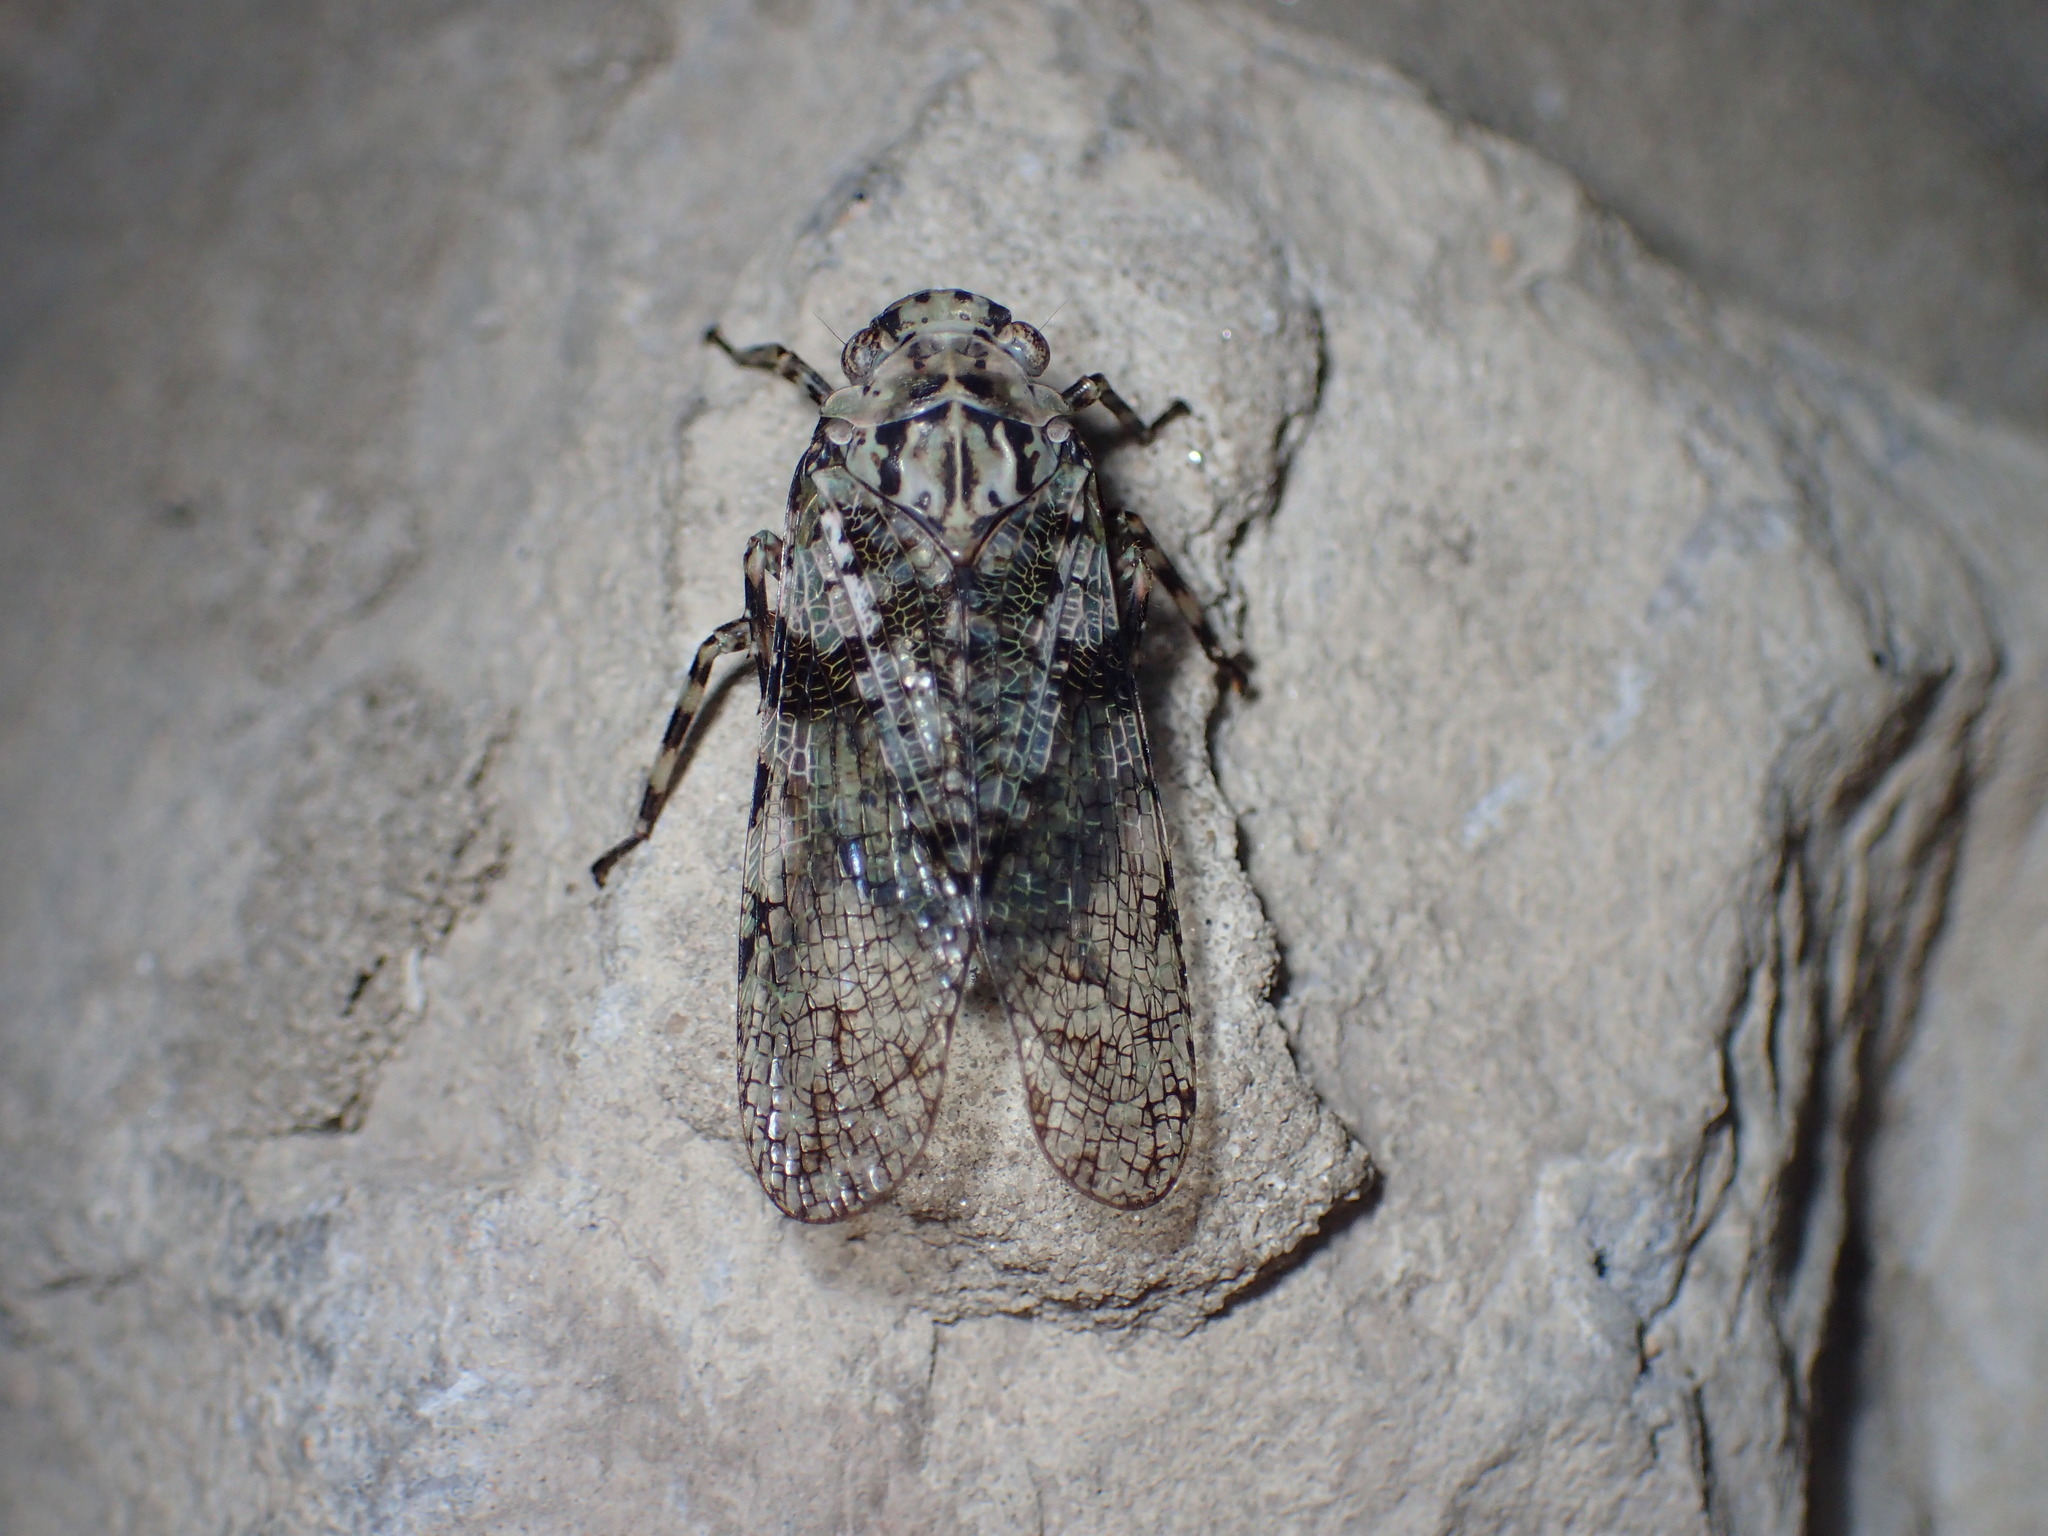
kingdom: Animalia
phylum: Arthropoda
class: Insecta
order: Hemiptera
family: Fulgoridae
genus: Calyptoproctus
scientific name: Calyptoproctus marmoratus
